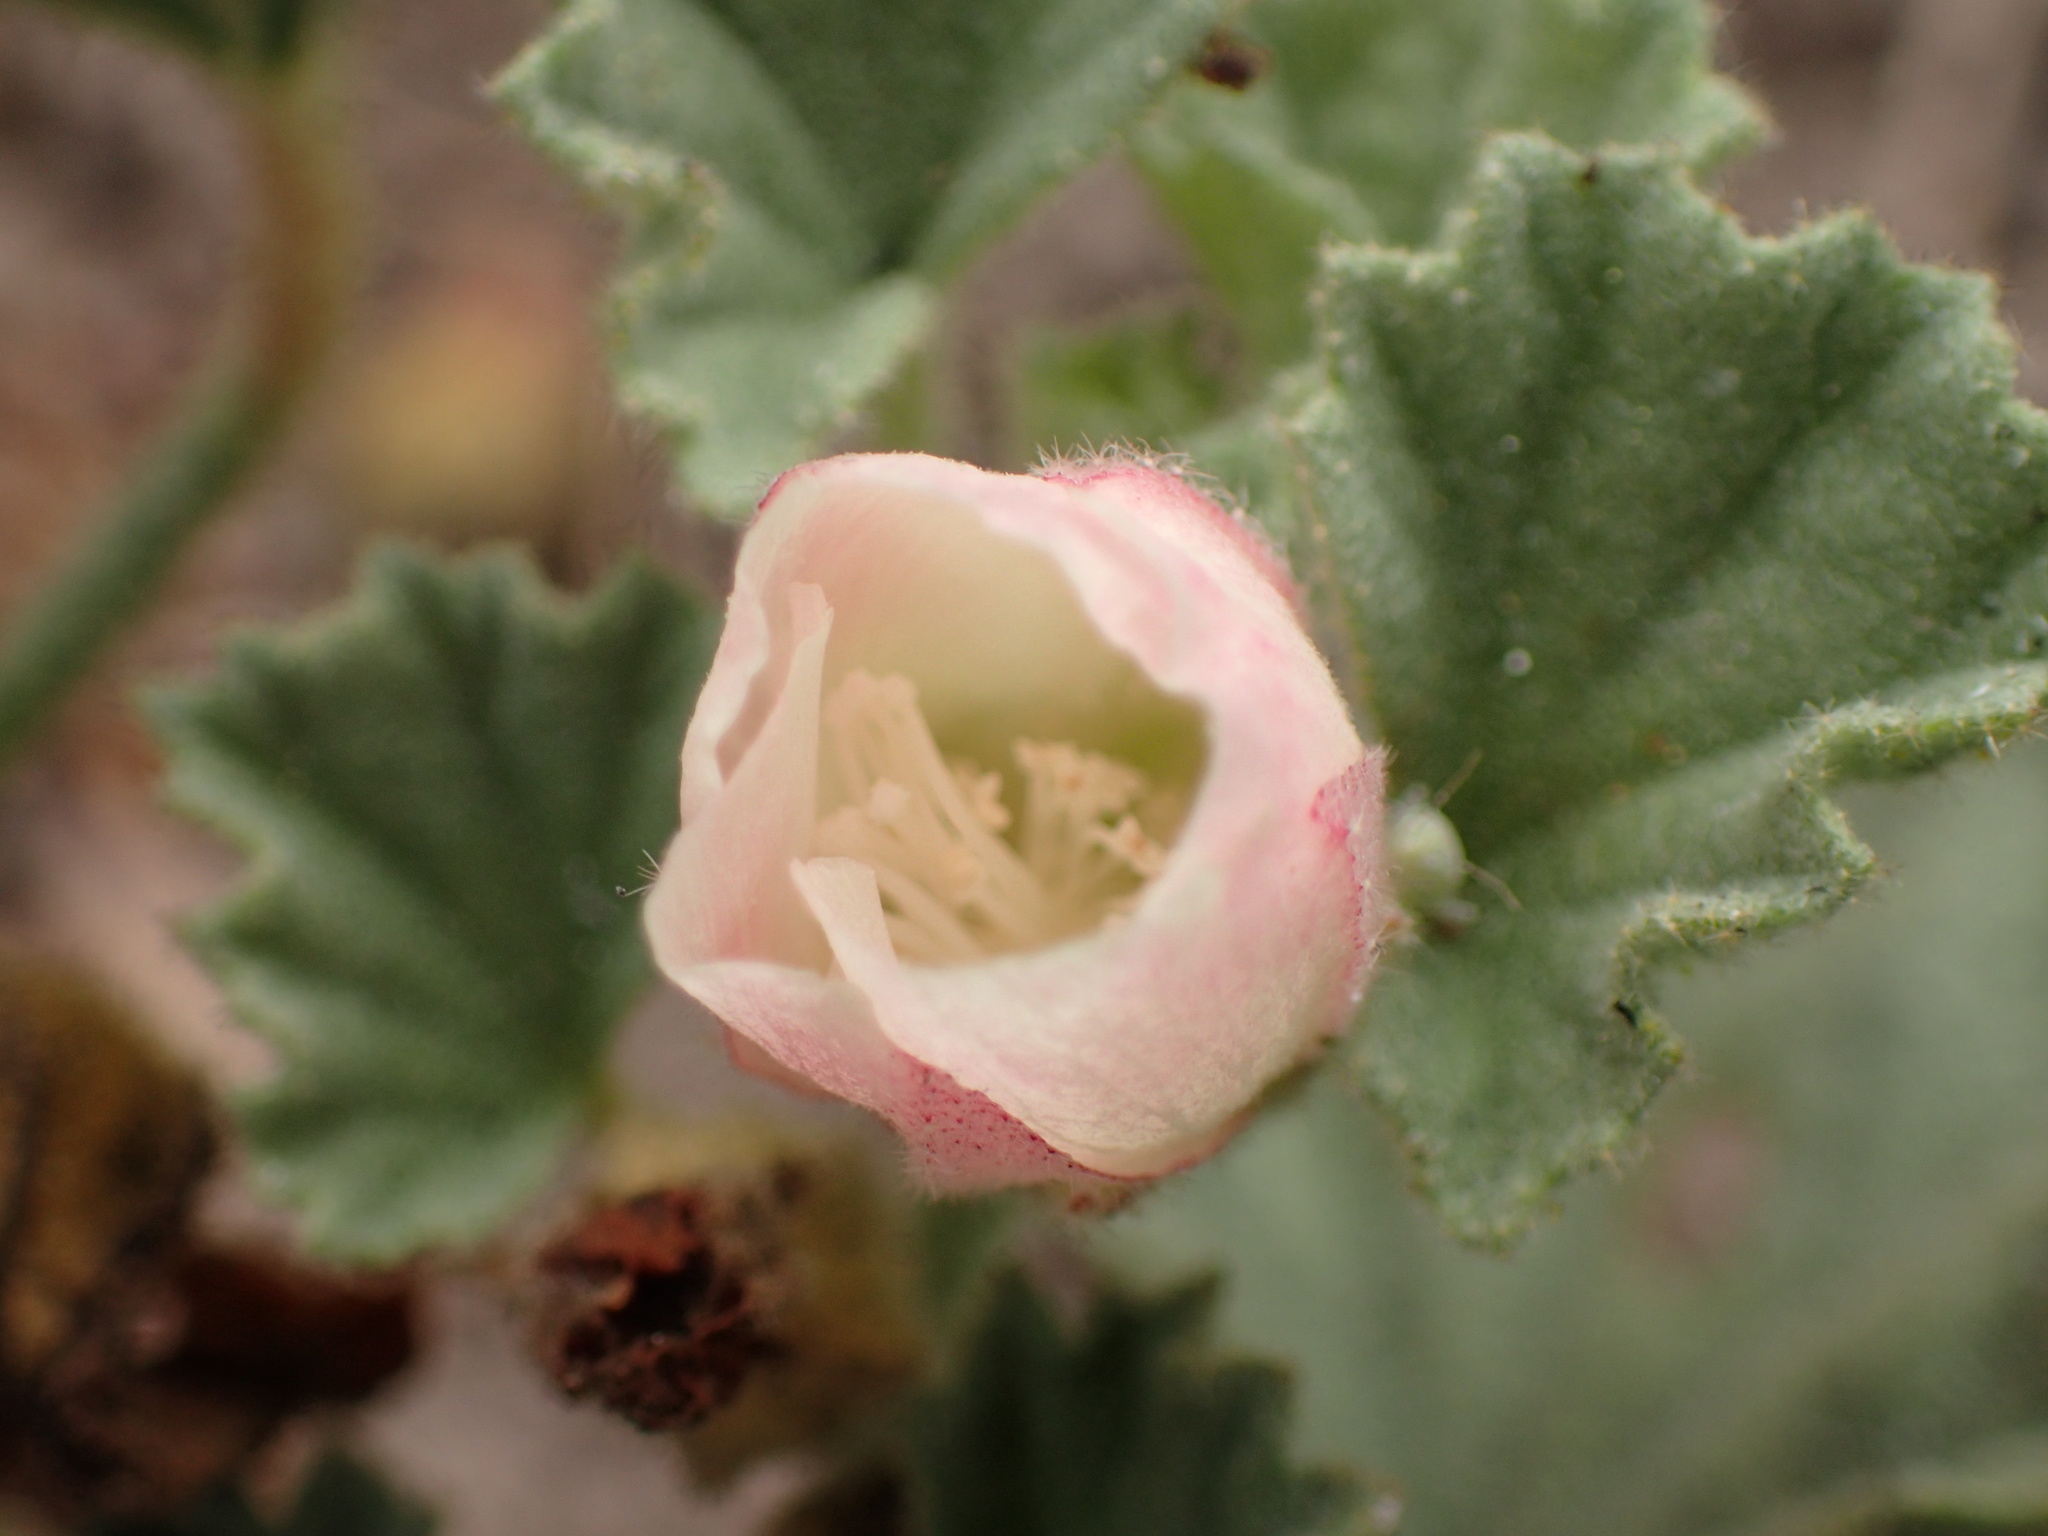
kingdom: Plantae
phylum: Tracheophyta
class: Magnoliopsida
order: Malvales
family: Malvaceae
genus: Malvella
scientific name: Malvella leprosa
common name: Alkali-mallow
